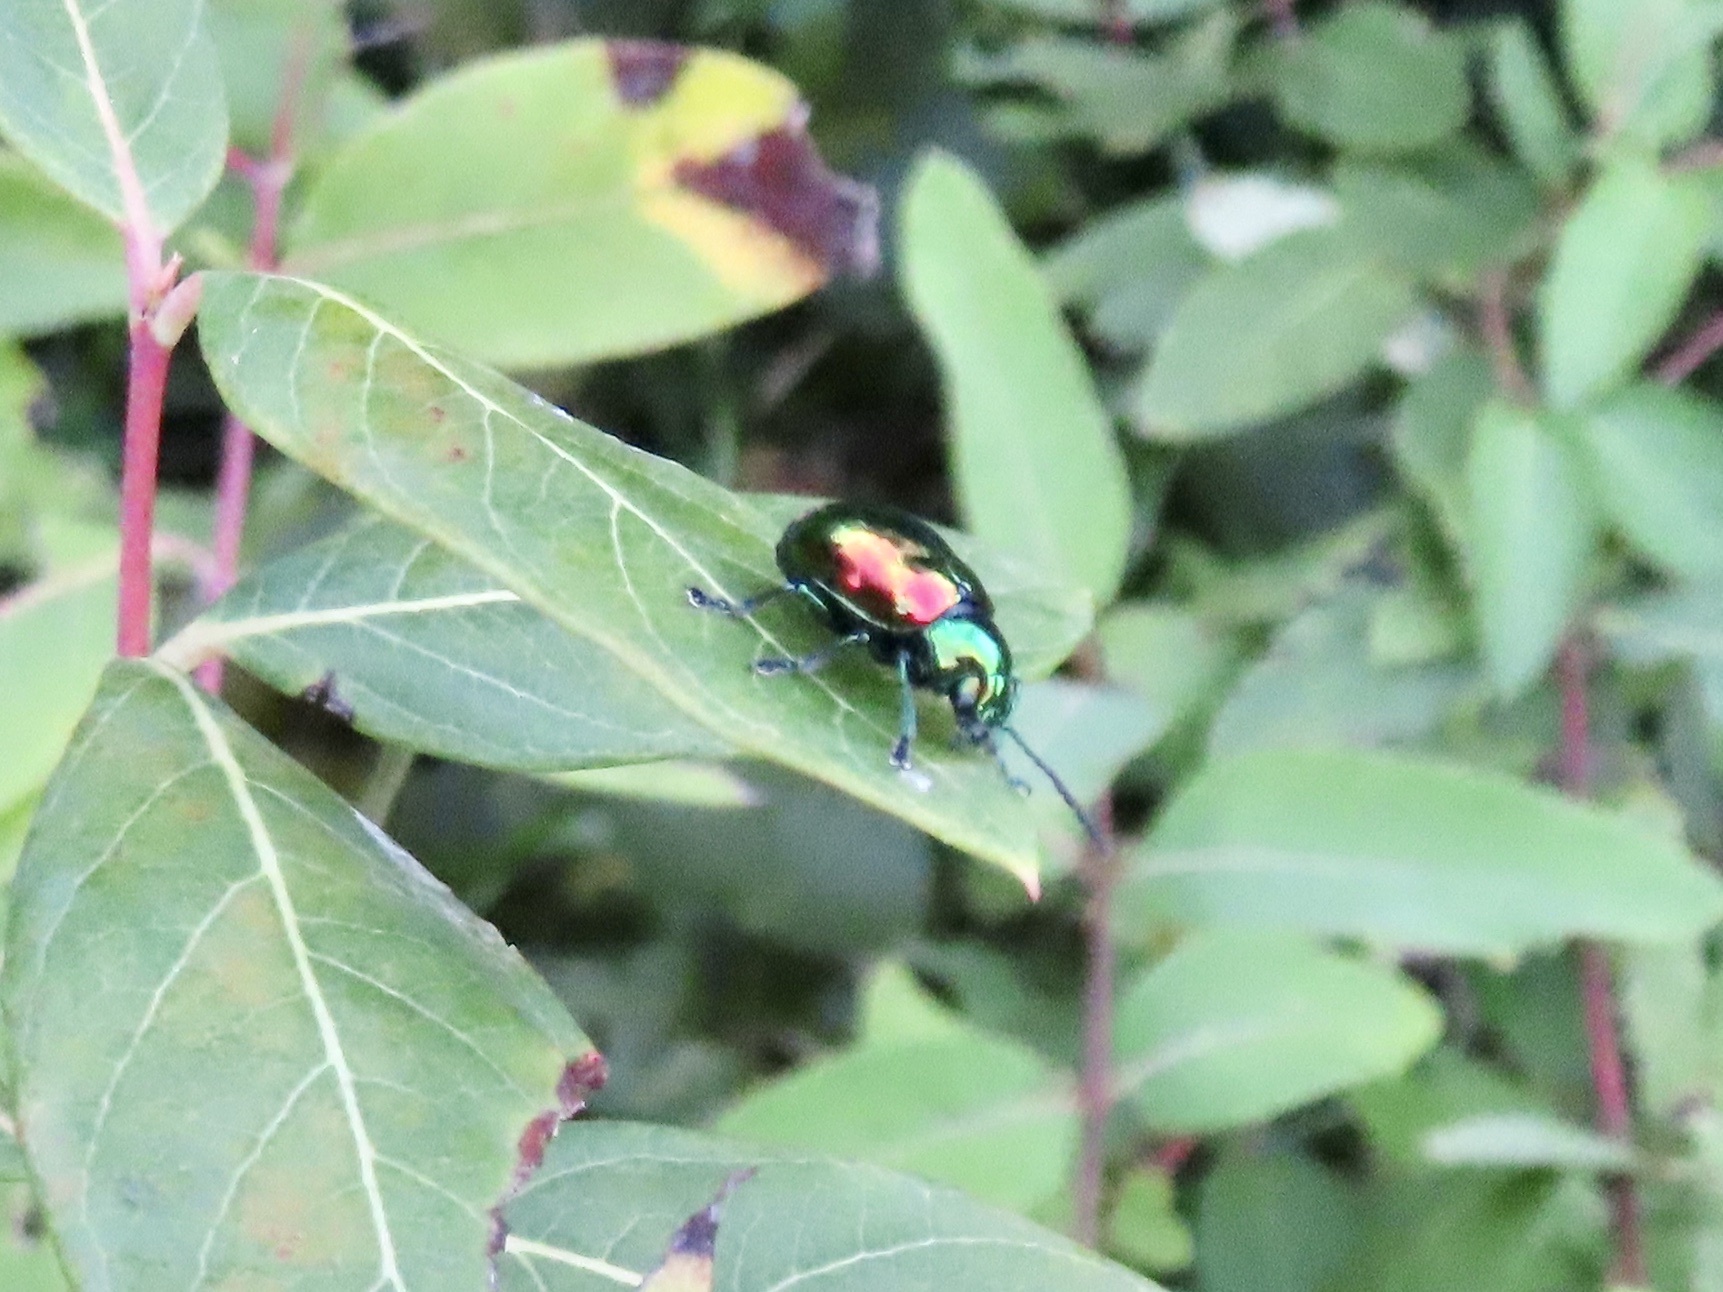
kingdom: Animalia
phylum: Arthropoda
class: Insecta
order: Coleoptera
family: Chrysomelidae
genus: Chrysochus
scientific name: Chrysochus auratus
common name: Dogbane leaf beetle
